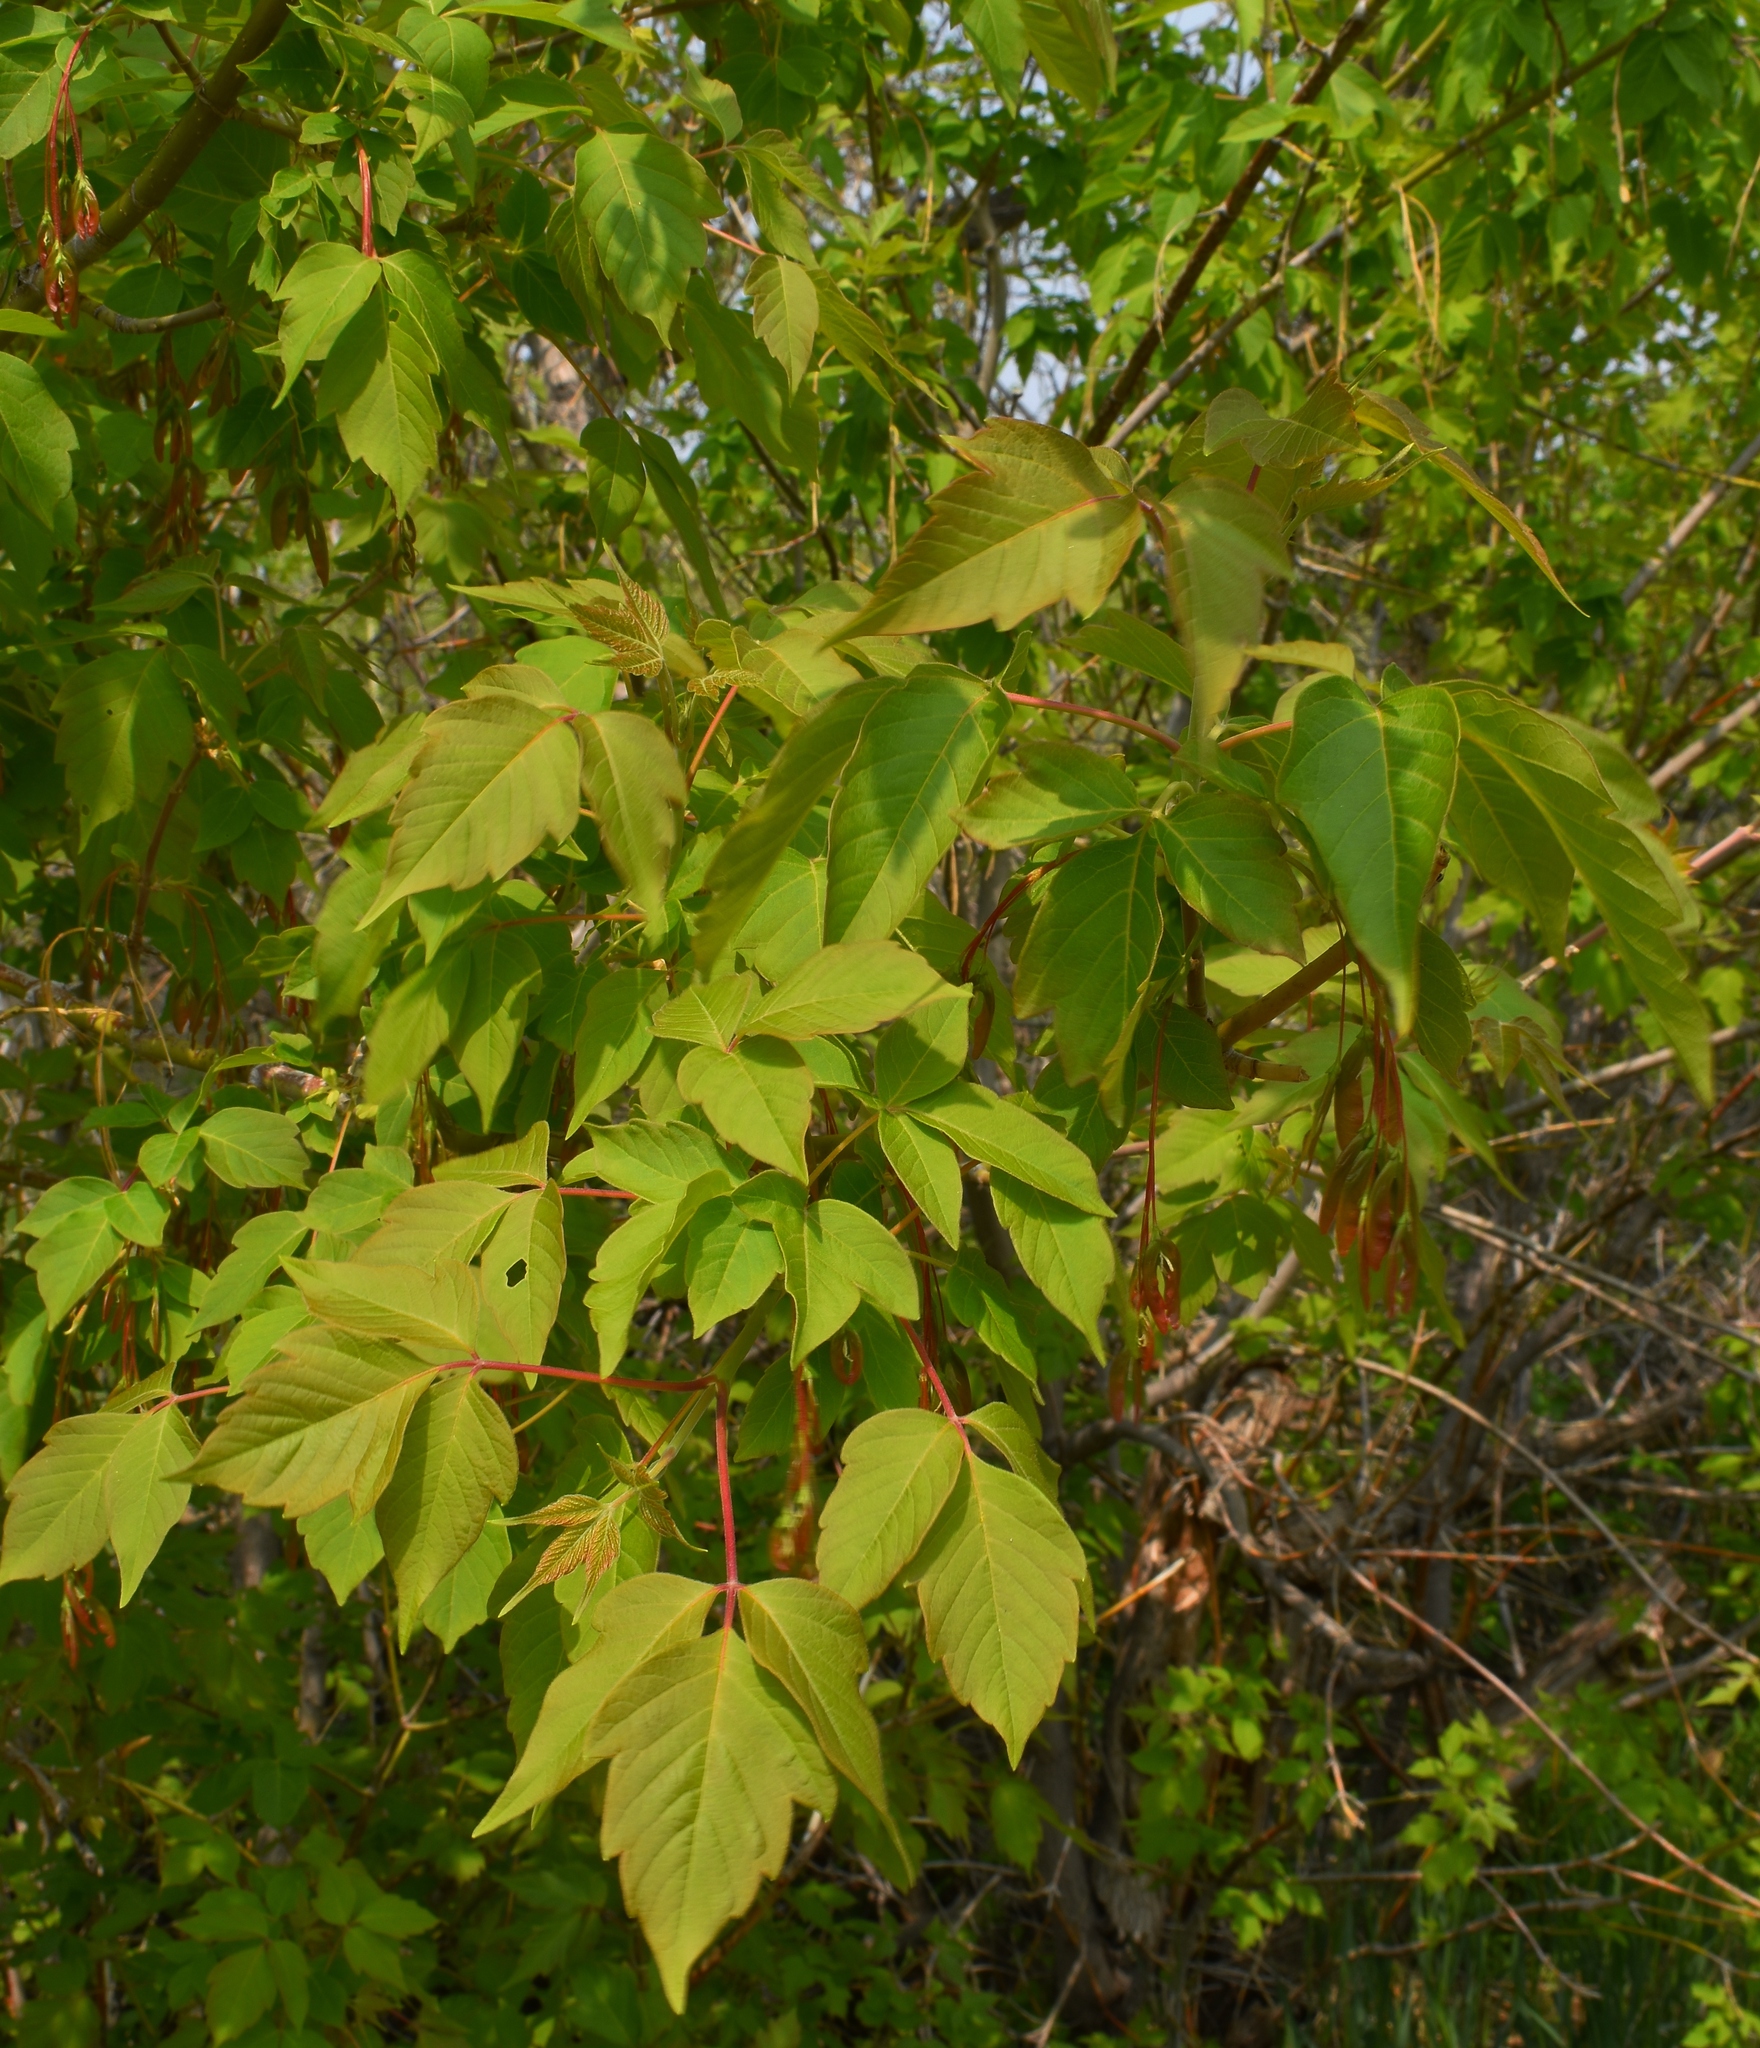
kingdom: Plantae
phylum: Tracheophyta
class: Magnoliopsida
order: Sapindales
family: Sapindaceae
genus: Acer
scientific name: Acer negundo
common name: Ashleaf maple
